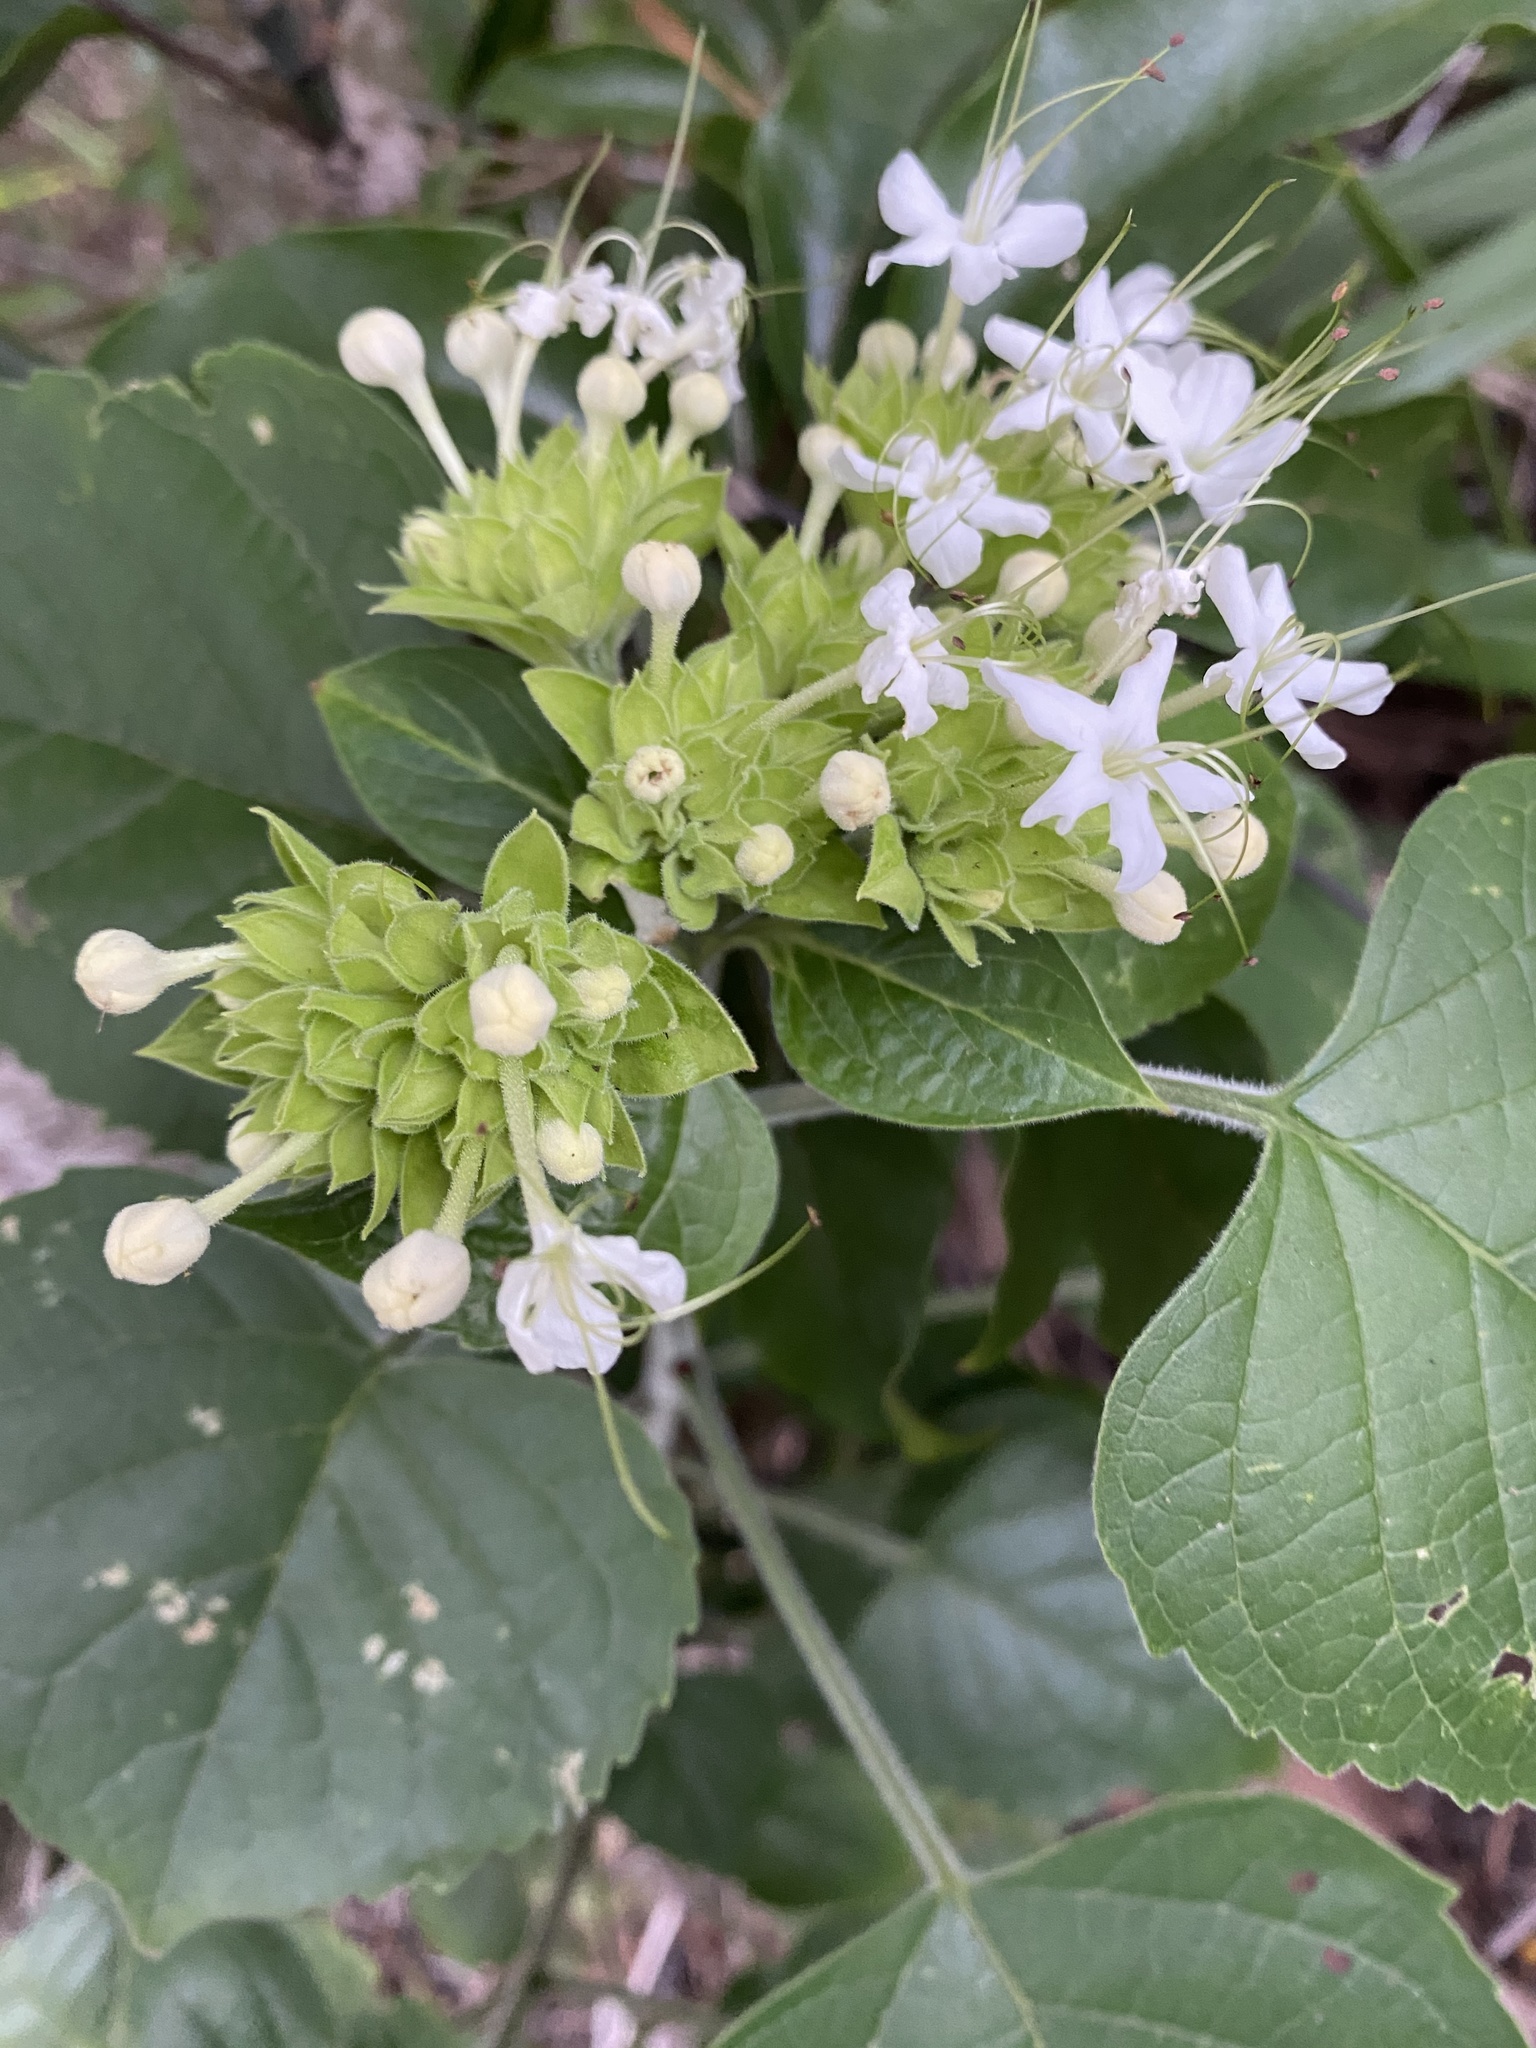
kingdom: Plantae
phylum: Tracheophyta
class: Magnoliopsida
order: Lamiales
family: Lamiaceae
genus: Clerodendrum
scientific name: Clerodendrum canescens
